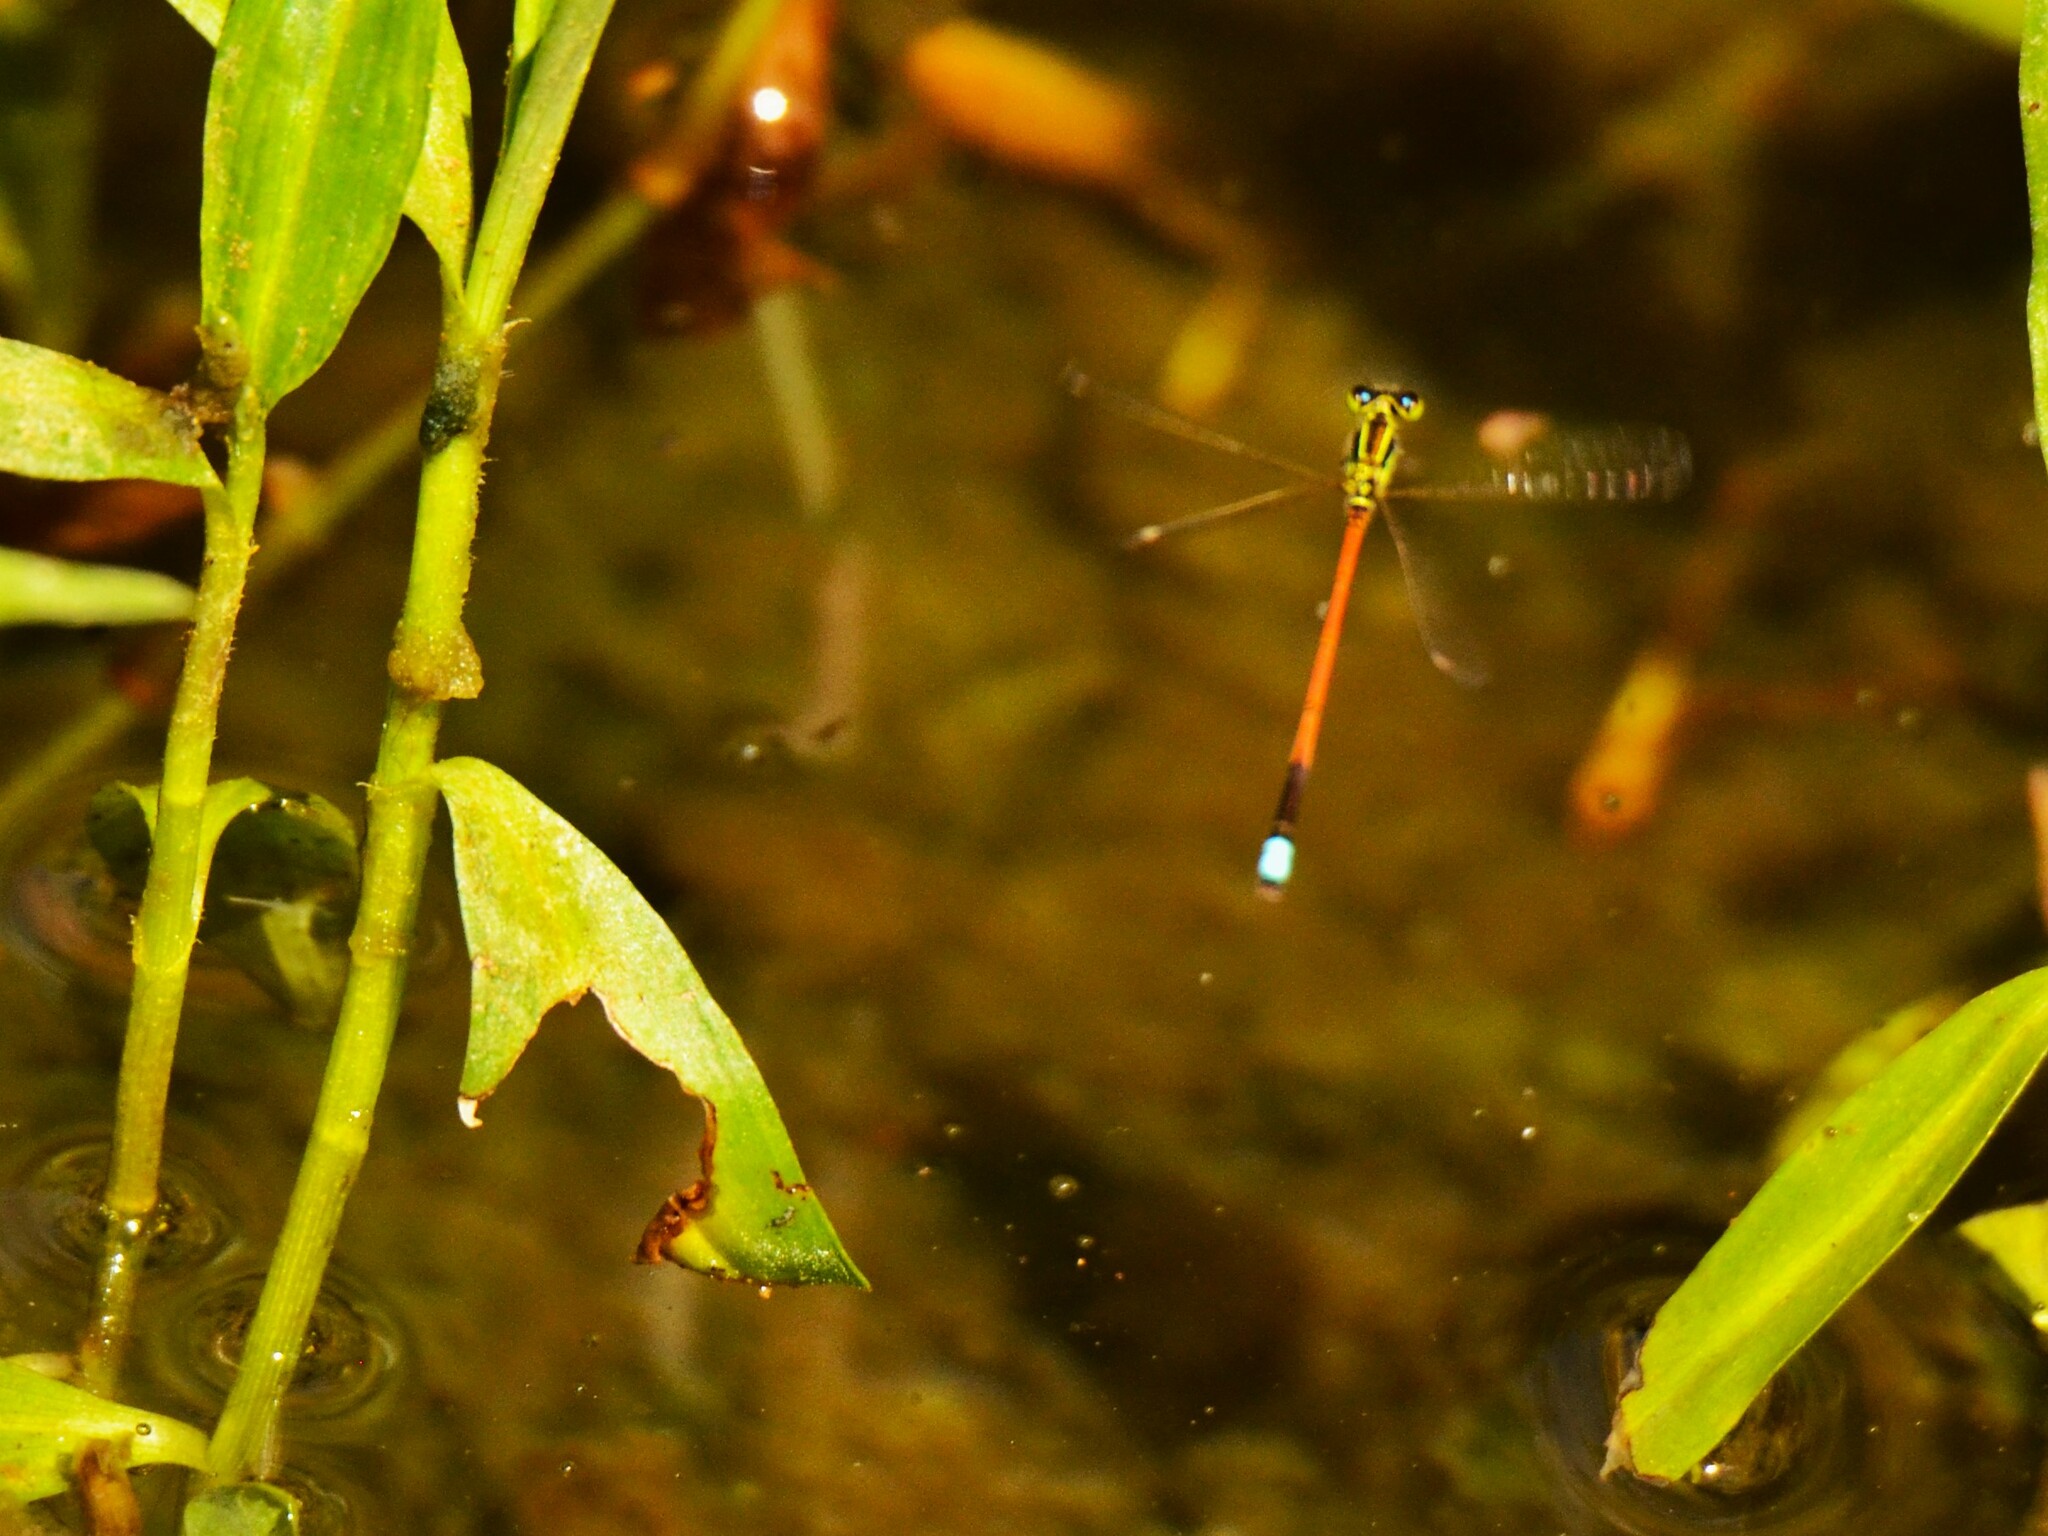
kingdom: Animalia
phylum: Arthropoda
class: Insecta
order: Odonata
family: Coenagrionidae
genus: Ischnura
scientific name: Ischnura aurora
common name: Gossamer damselfly
